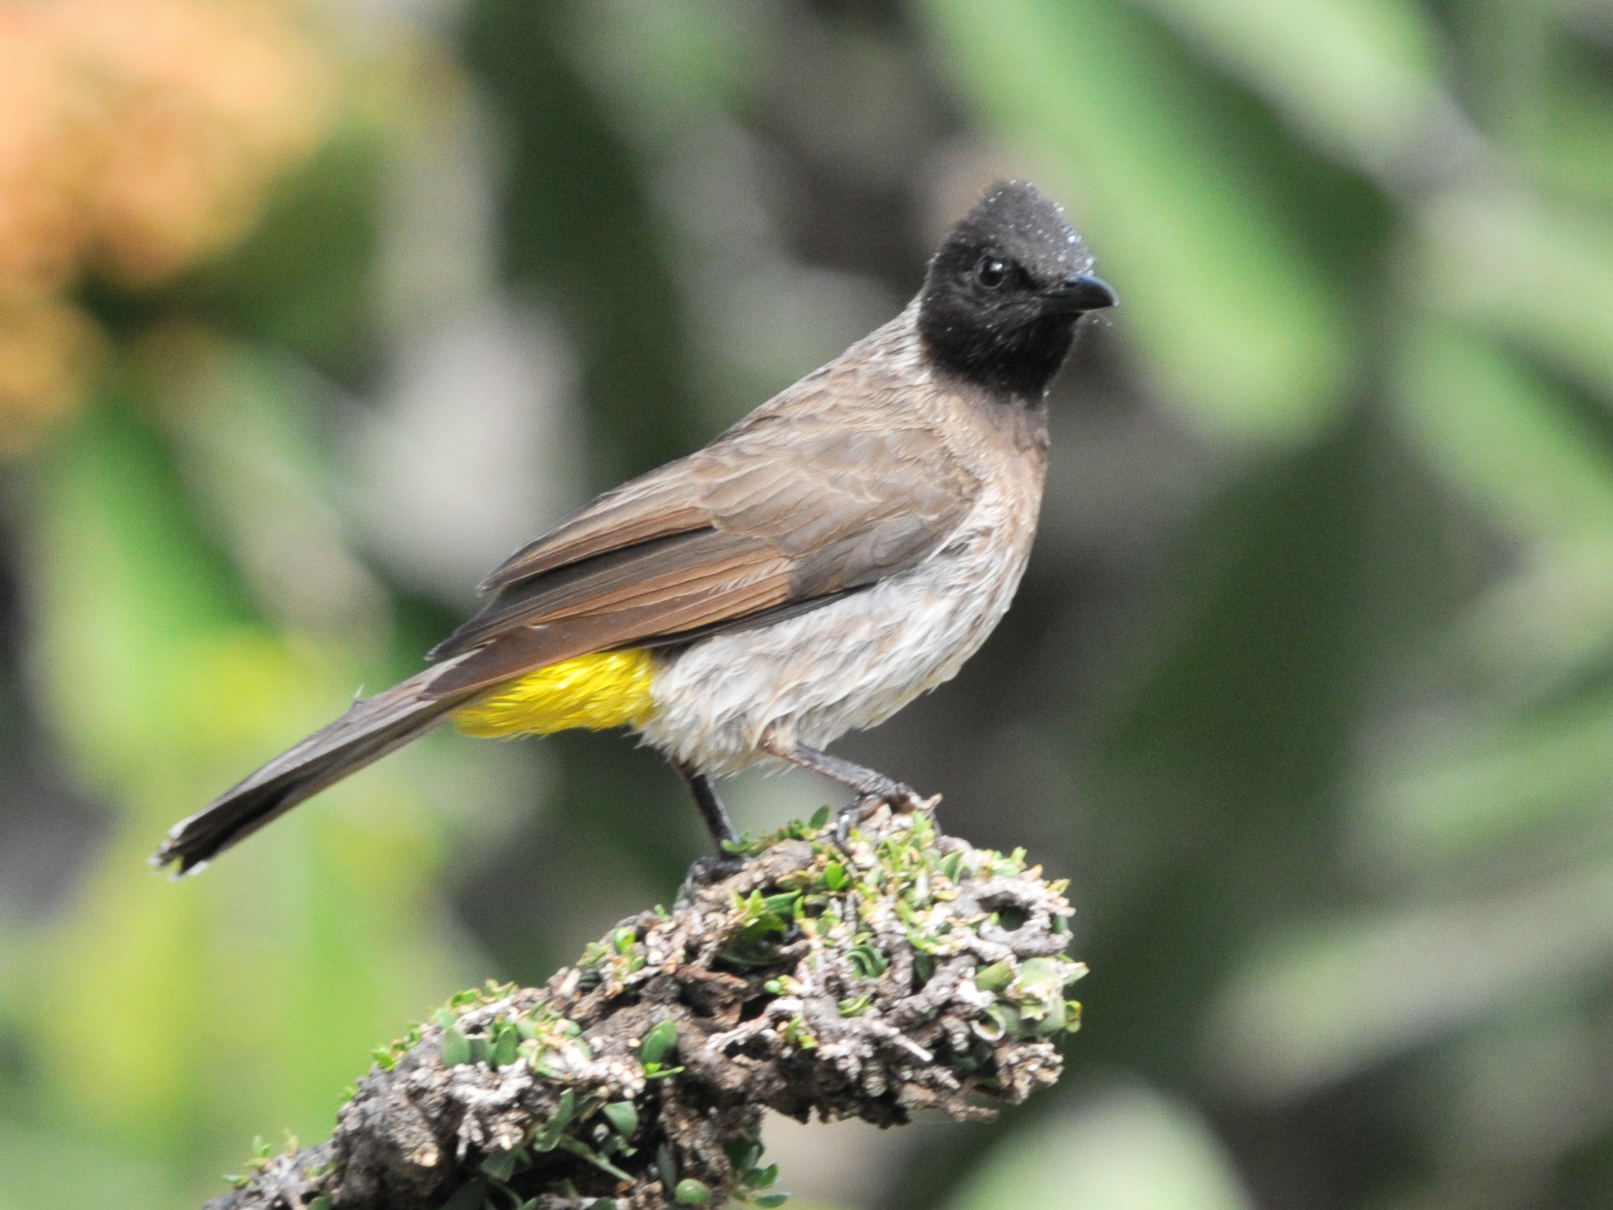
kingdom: Animalia
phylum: Chordata
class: Aves
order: Passeriformes
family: Pycnonotidae
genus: Pycnonotus
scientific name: Pycnonotus barbatus
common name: Common bulbul
